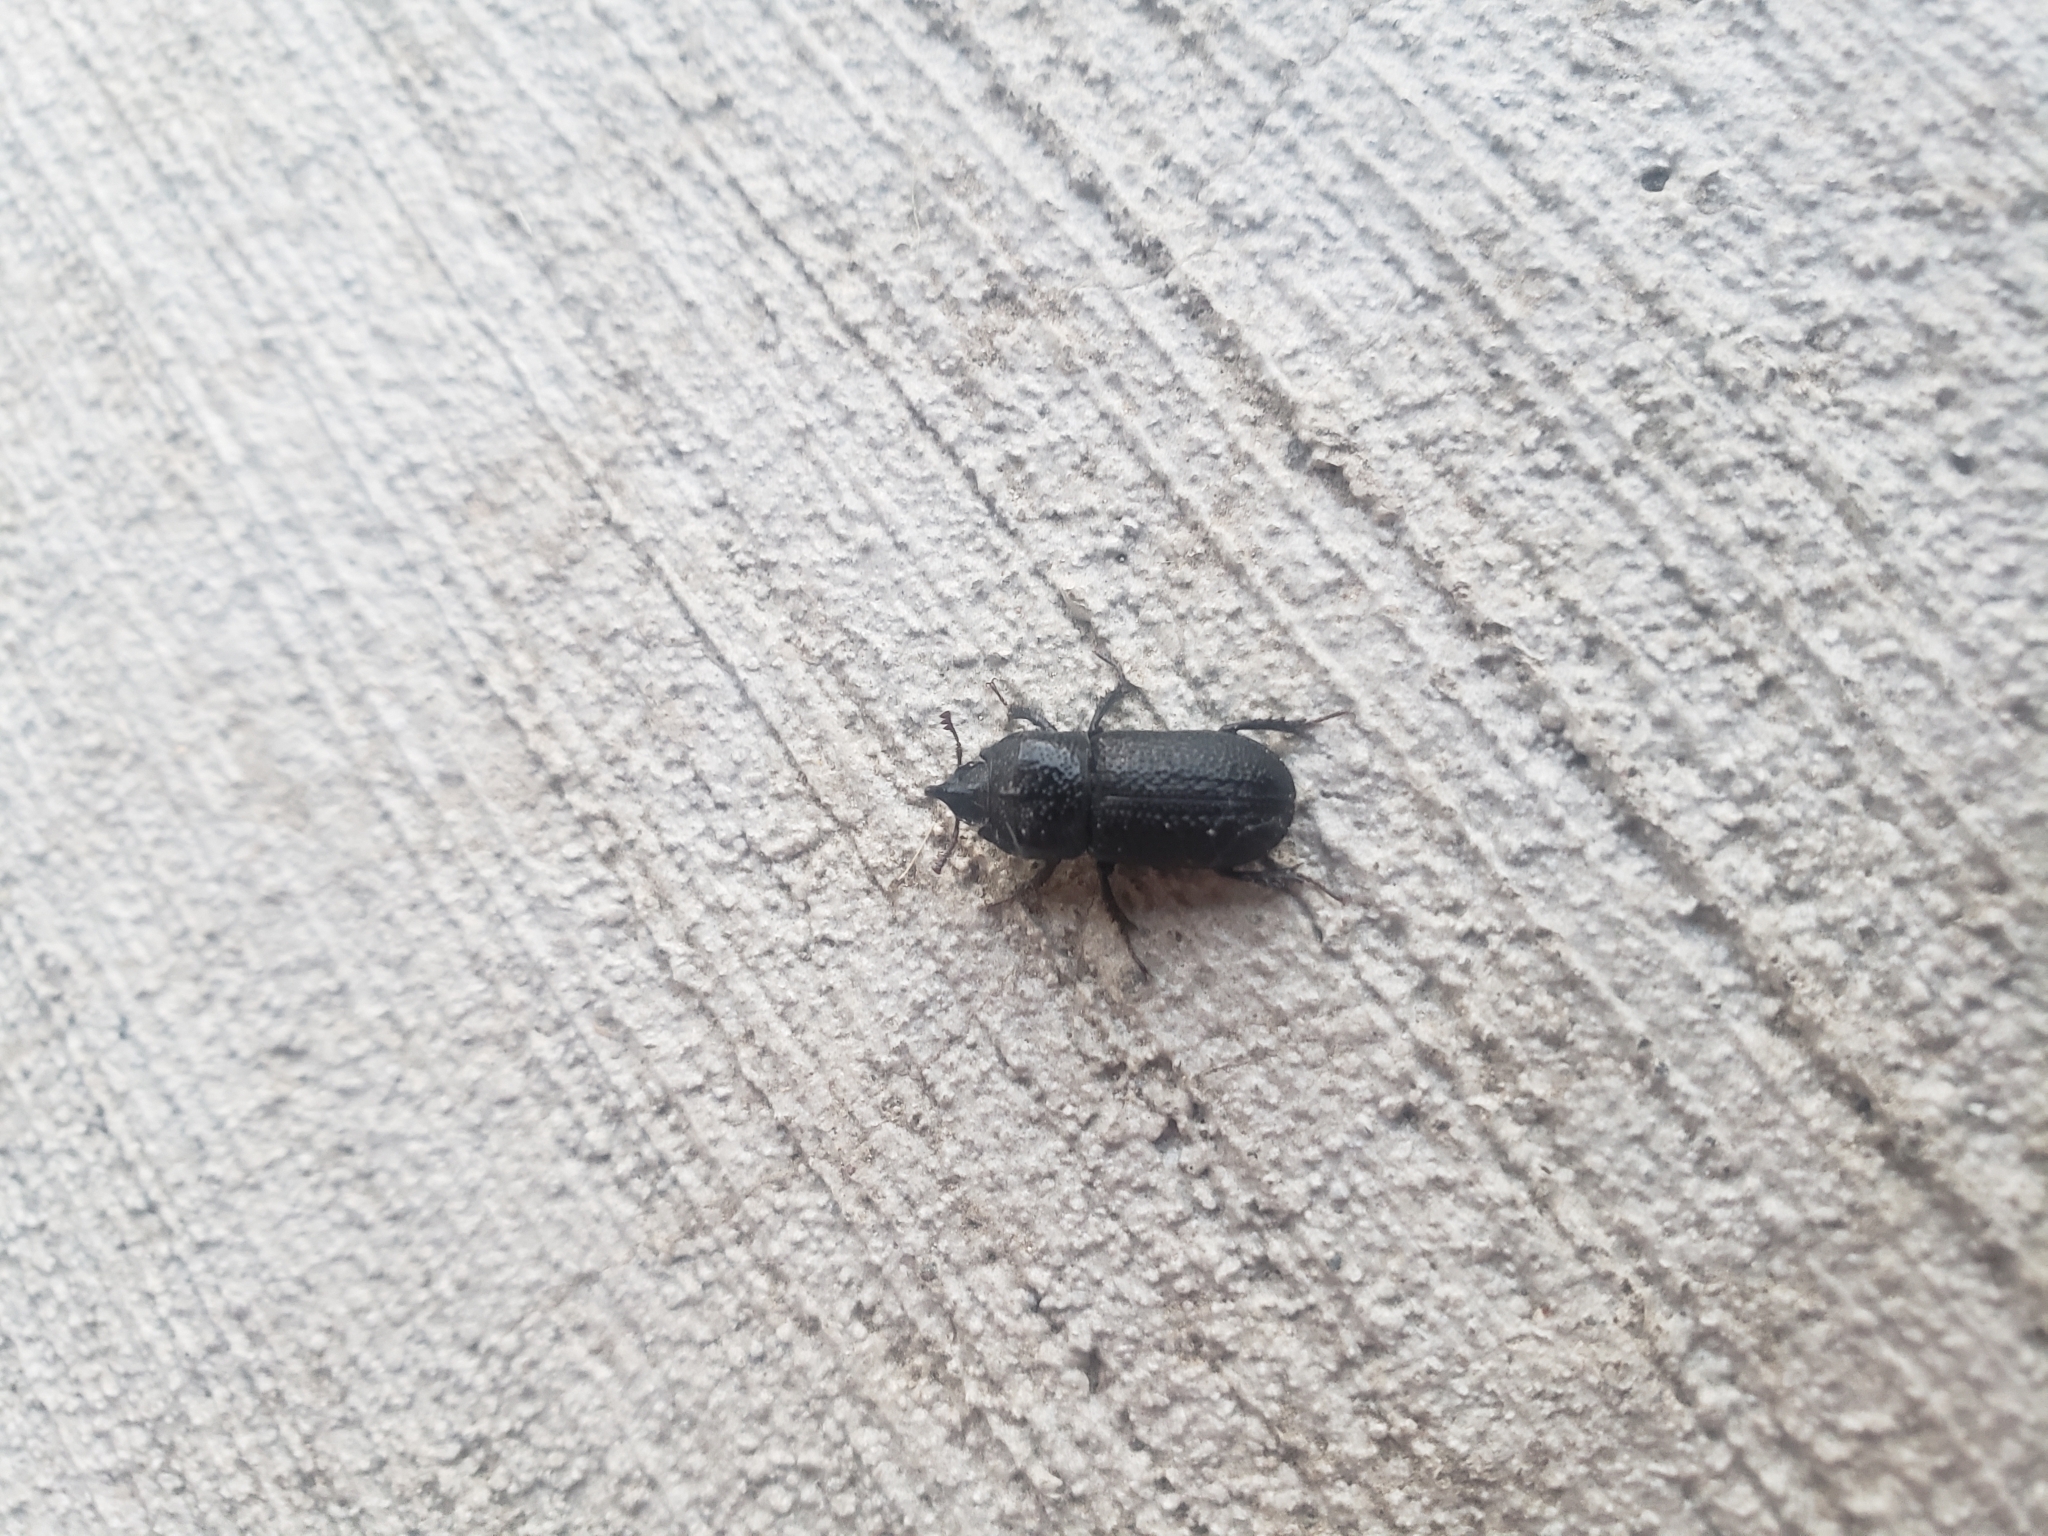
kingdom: Animalia
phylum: Arthropoda
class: Insecta
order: Coleoptera
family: Lucanidae
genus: Sinodendron
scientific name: Sinodendron rugosum
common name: Rugose stag beelte
